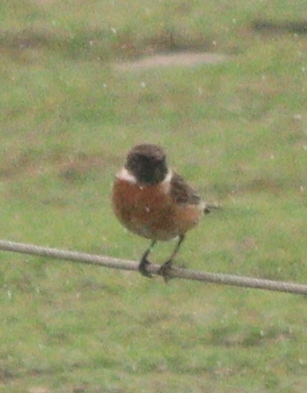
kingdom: Animalia
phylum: Chordata
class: Aves
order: Passeriformes
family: Muscicapidae
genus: Saxicola
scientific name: Saxicola rubicola
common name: European stonechat
